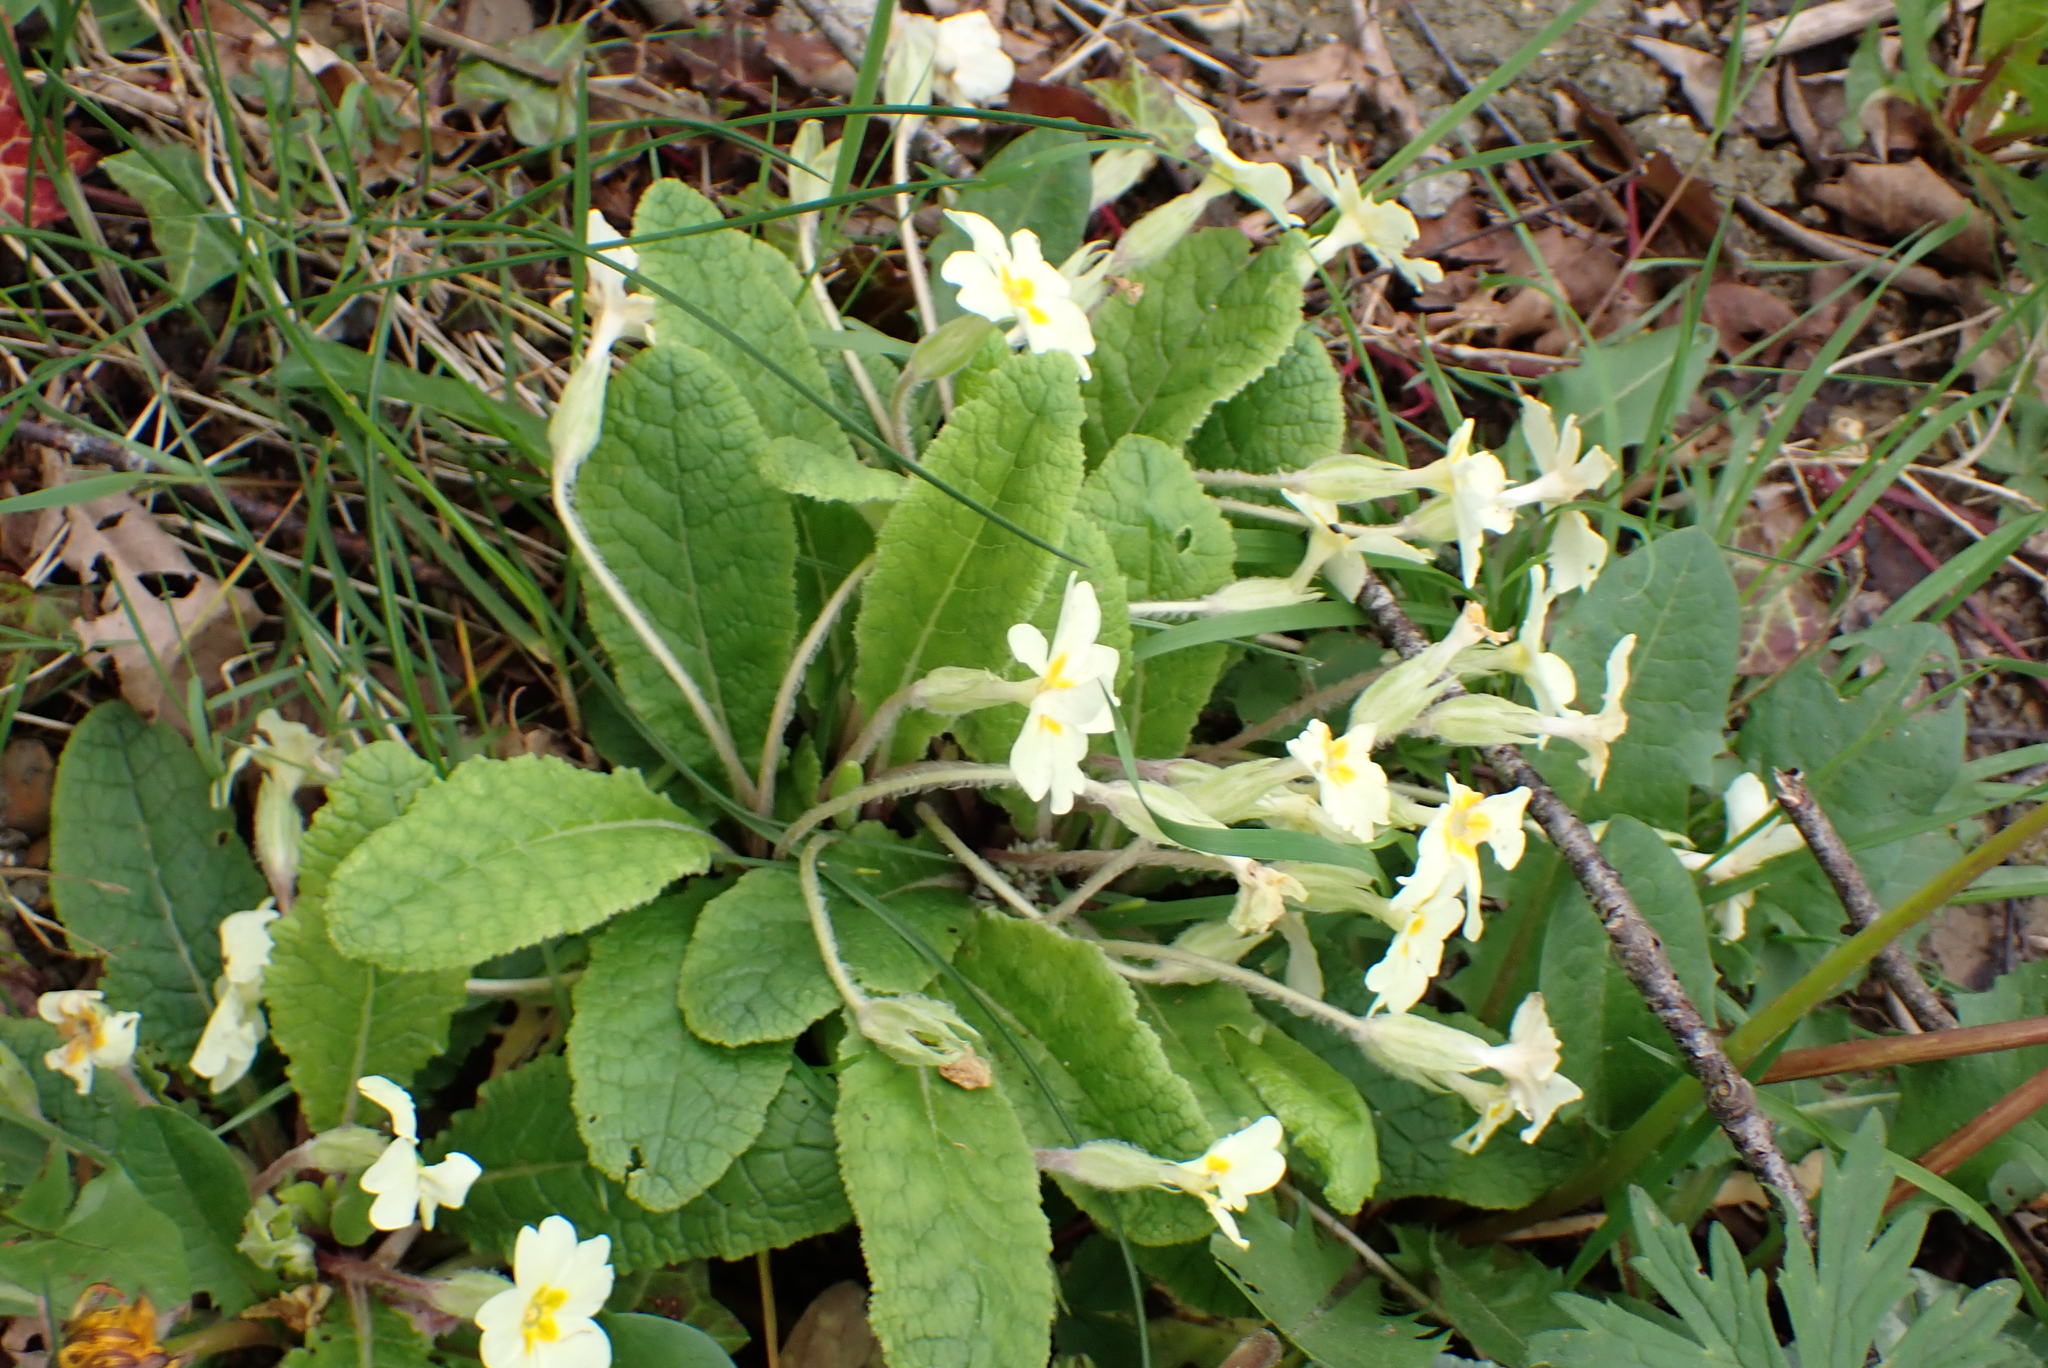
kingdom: Plantae
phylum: Tracheophyta
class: Magnoliopsida
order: Ericales
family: Primulaceae
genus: Primula
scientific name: Primula vulgaris
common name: Primrose
